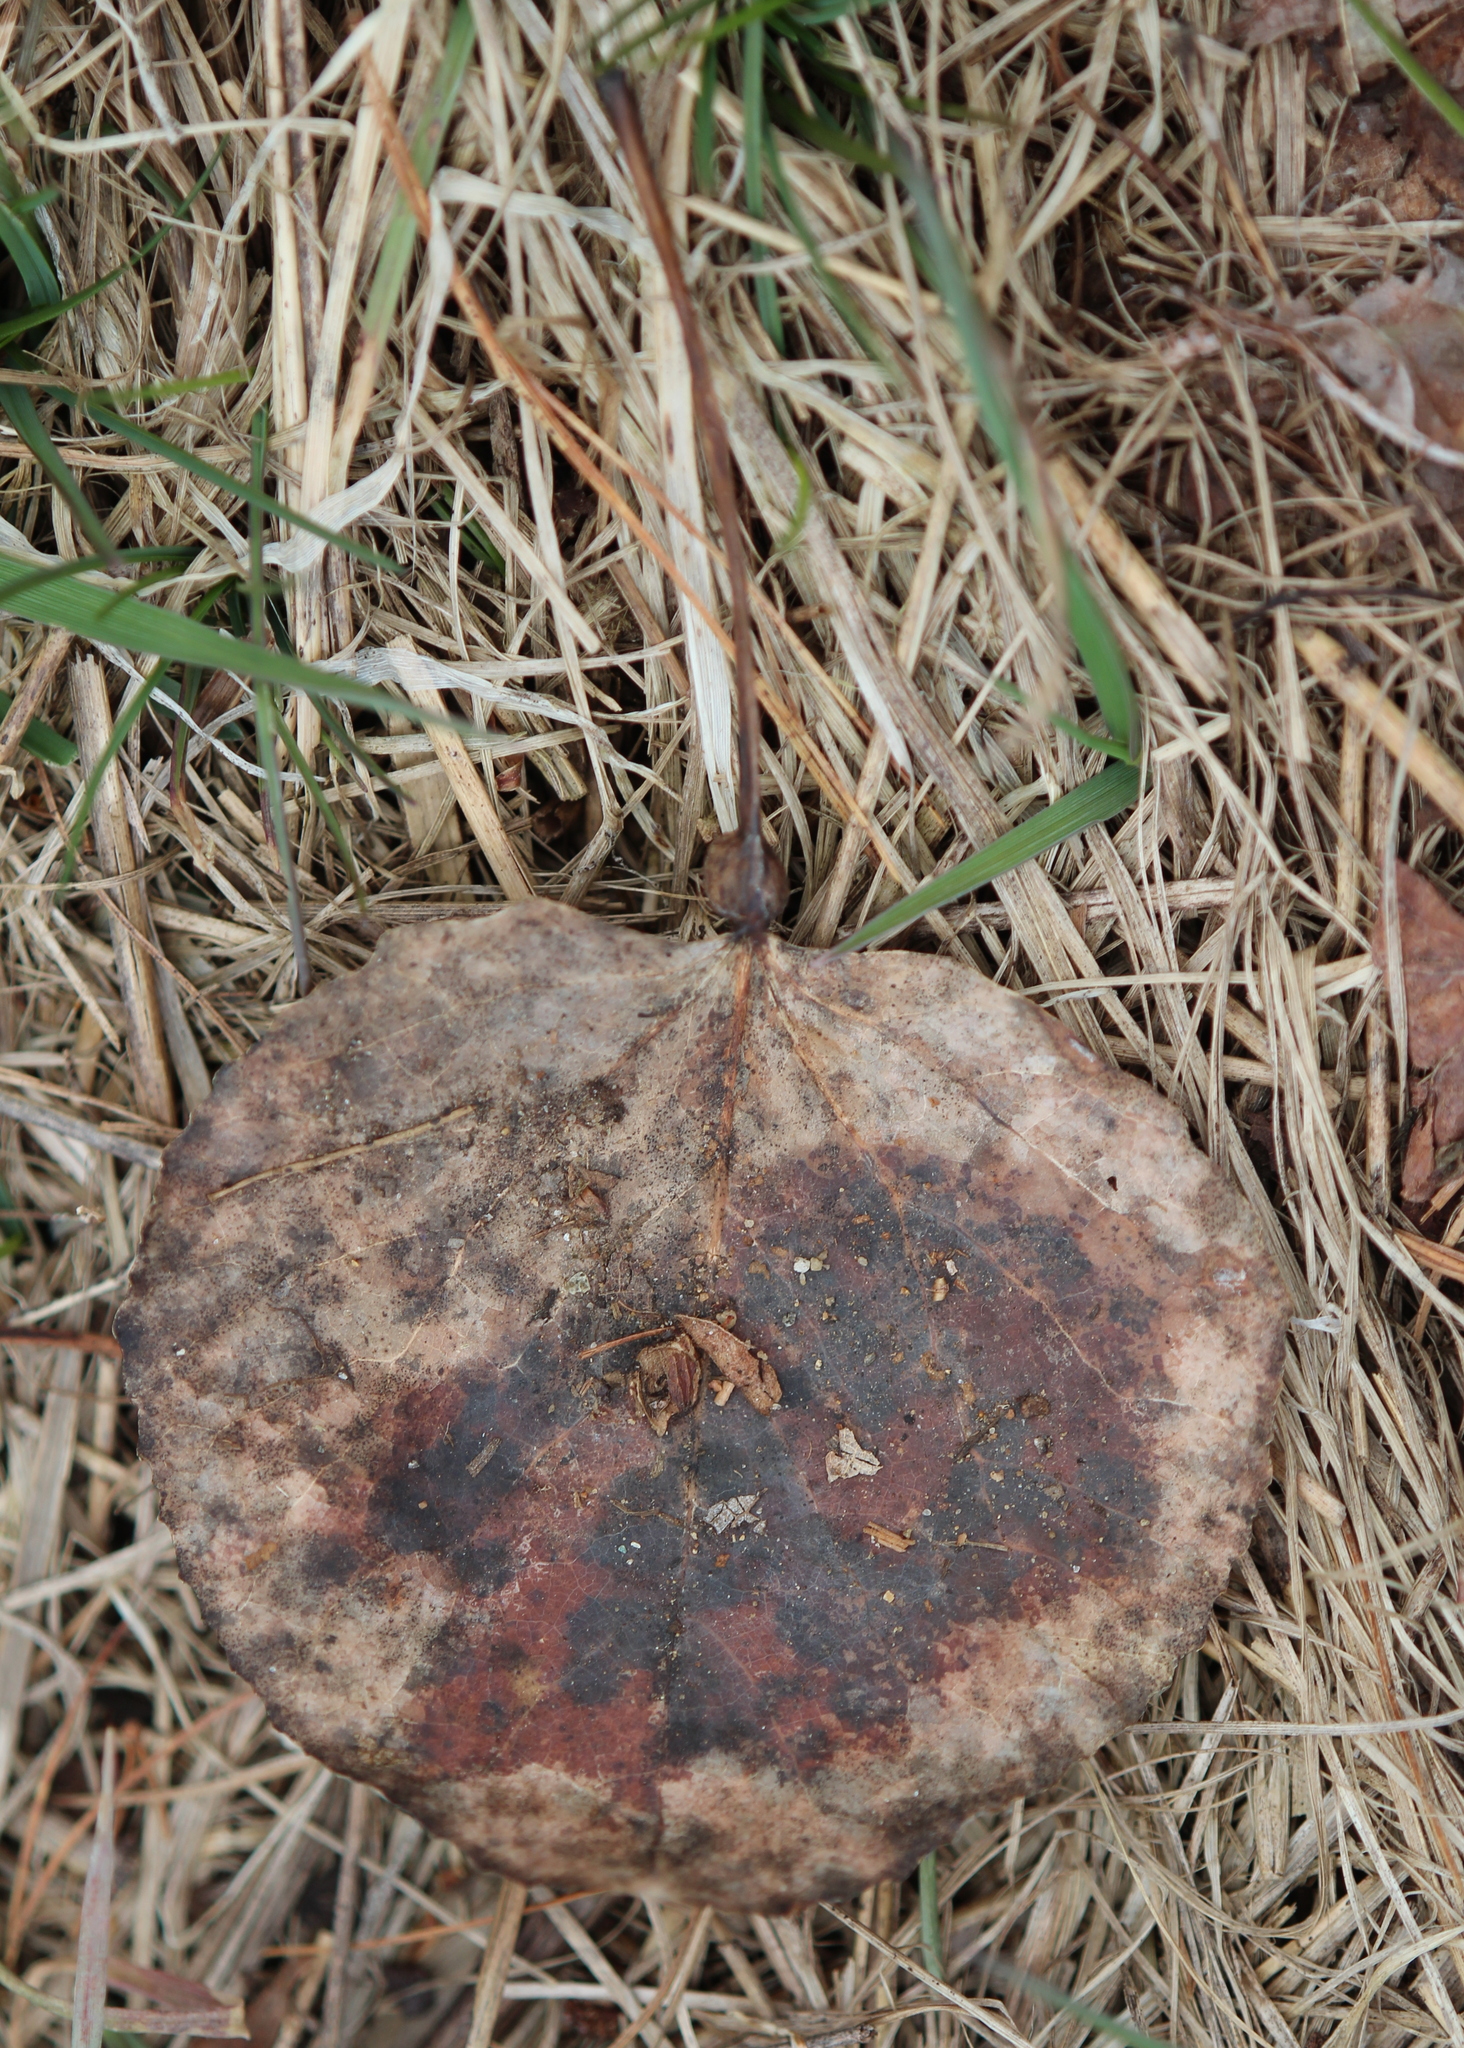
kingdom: Plantae
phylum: Tracheophyta
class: Magnoliopsida
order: Malpighiales
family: Salicaceae
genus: Populus
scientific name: Populus tremuloides
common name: Quaking aspen
